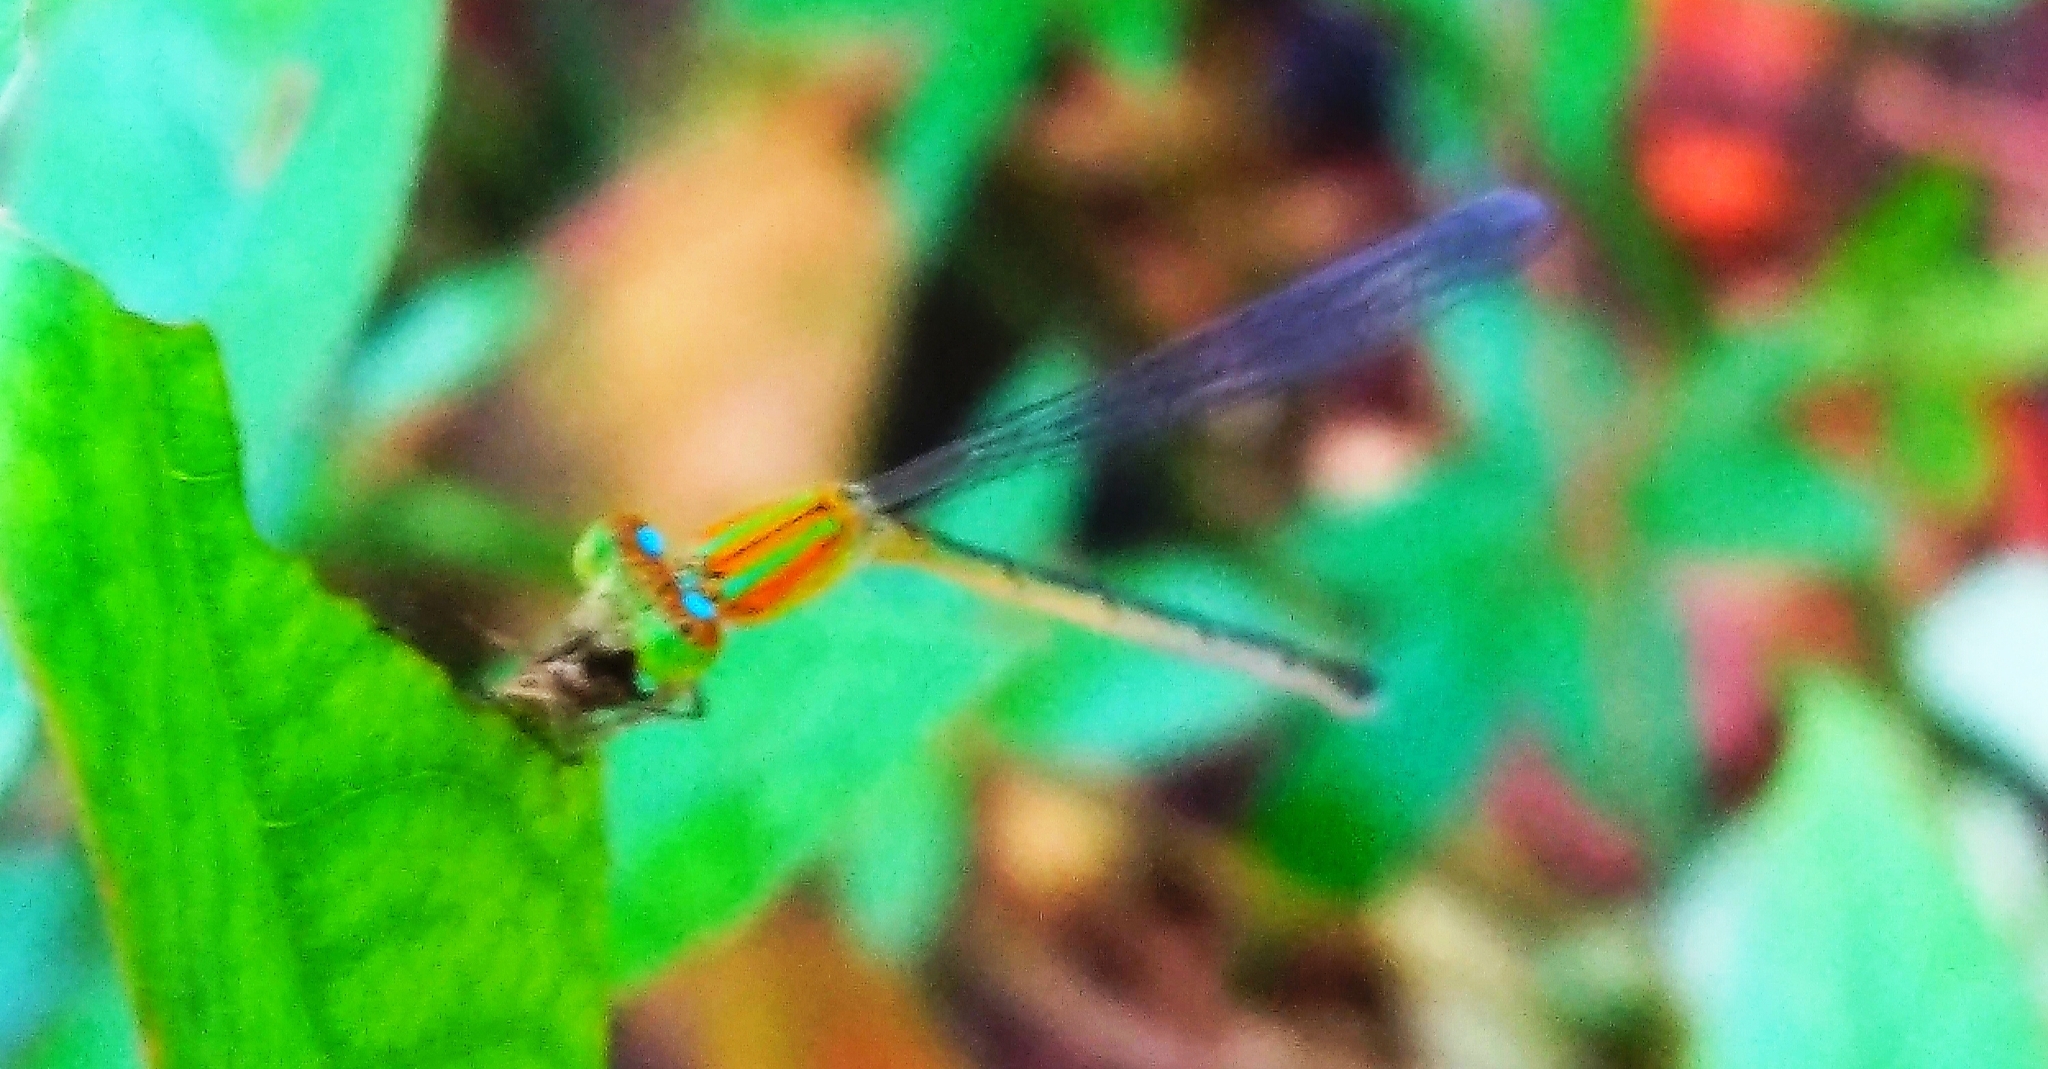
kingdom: Animalia
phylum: Arthropoda
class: Insecta
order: Odonata
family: Coenagrionidae
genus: Pseudagrion
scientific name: Pseudagrion microcephalum
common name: Blue riverdamsel
